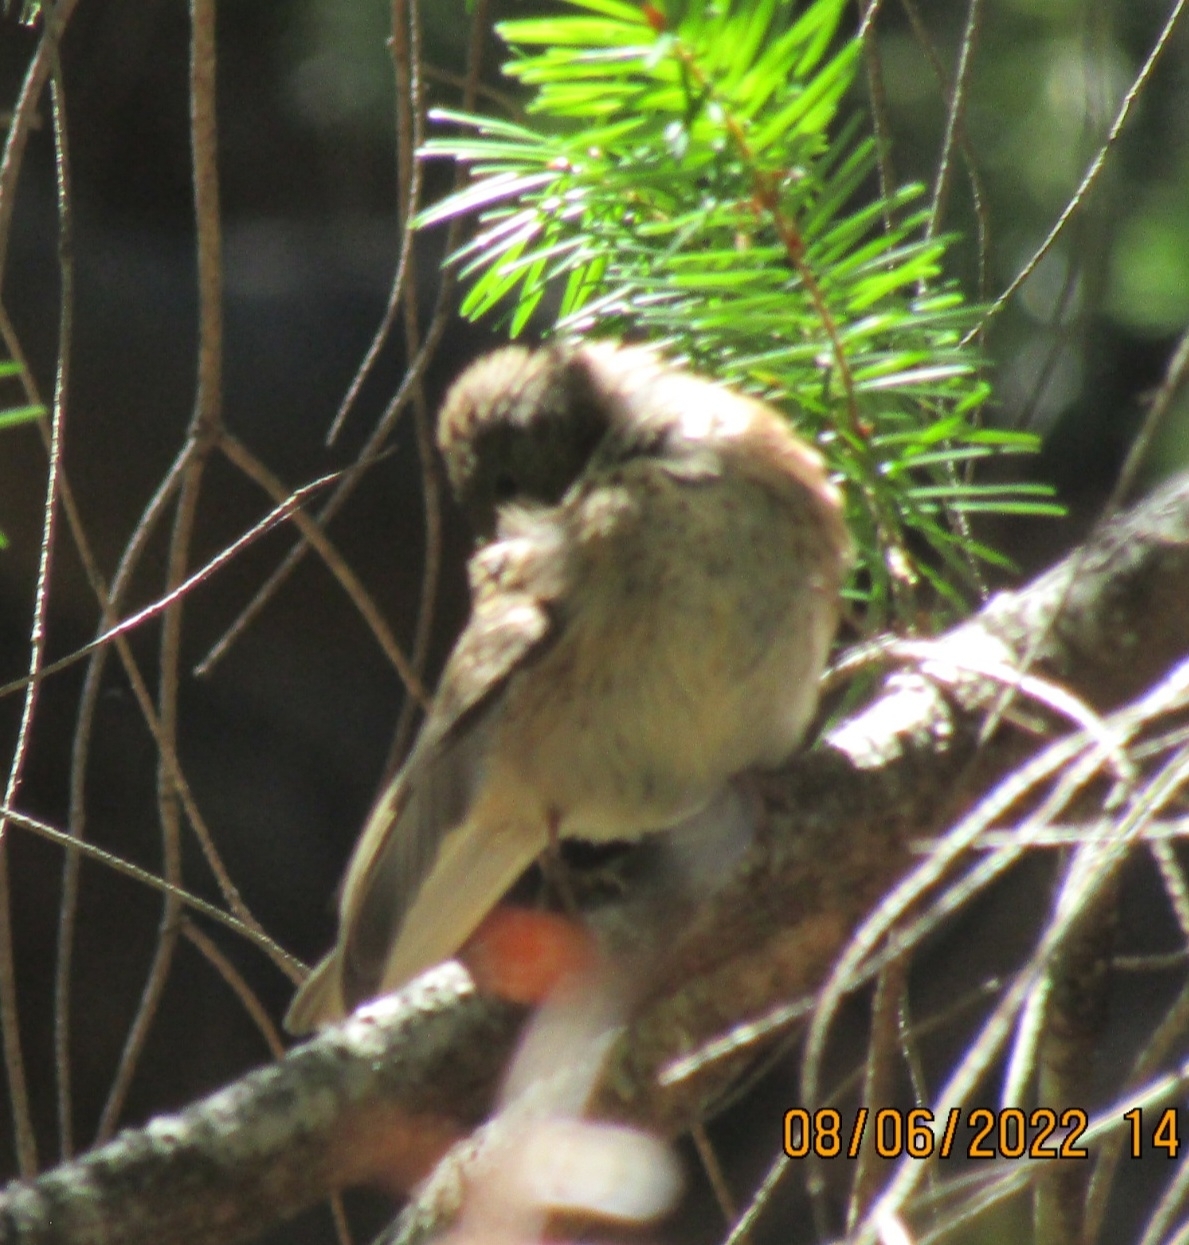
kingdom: Animalia
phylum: Chordata
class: Aves
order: Passeriformes
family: Cardinalidae
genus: Passerina
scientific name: Passerina amoena
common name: Lazuli bunting
